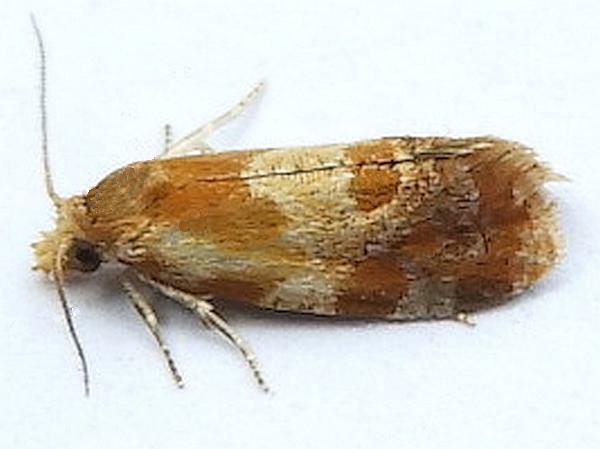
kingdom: Animalia
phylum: Arthropoda
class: Insecta
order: Lepidoptera
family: Tortricidae
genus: Aethes
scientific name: Aethes interruptofasciata
